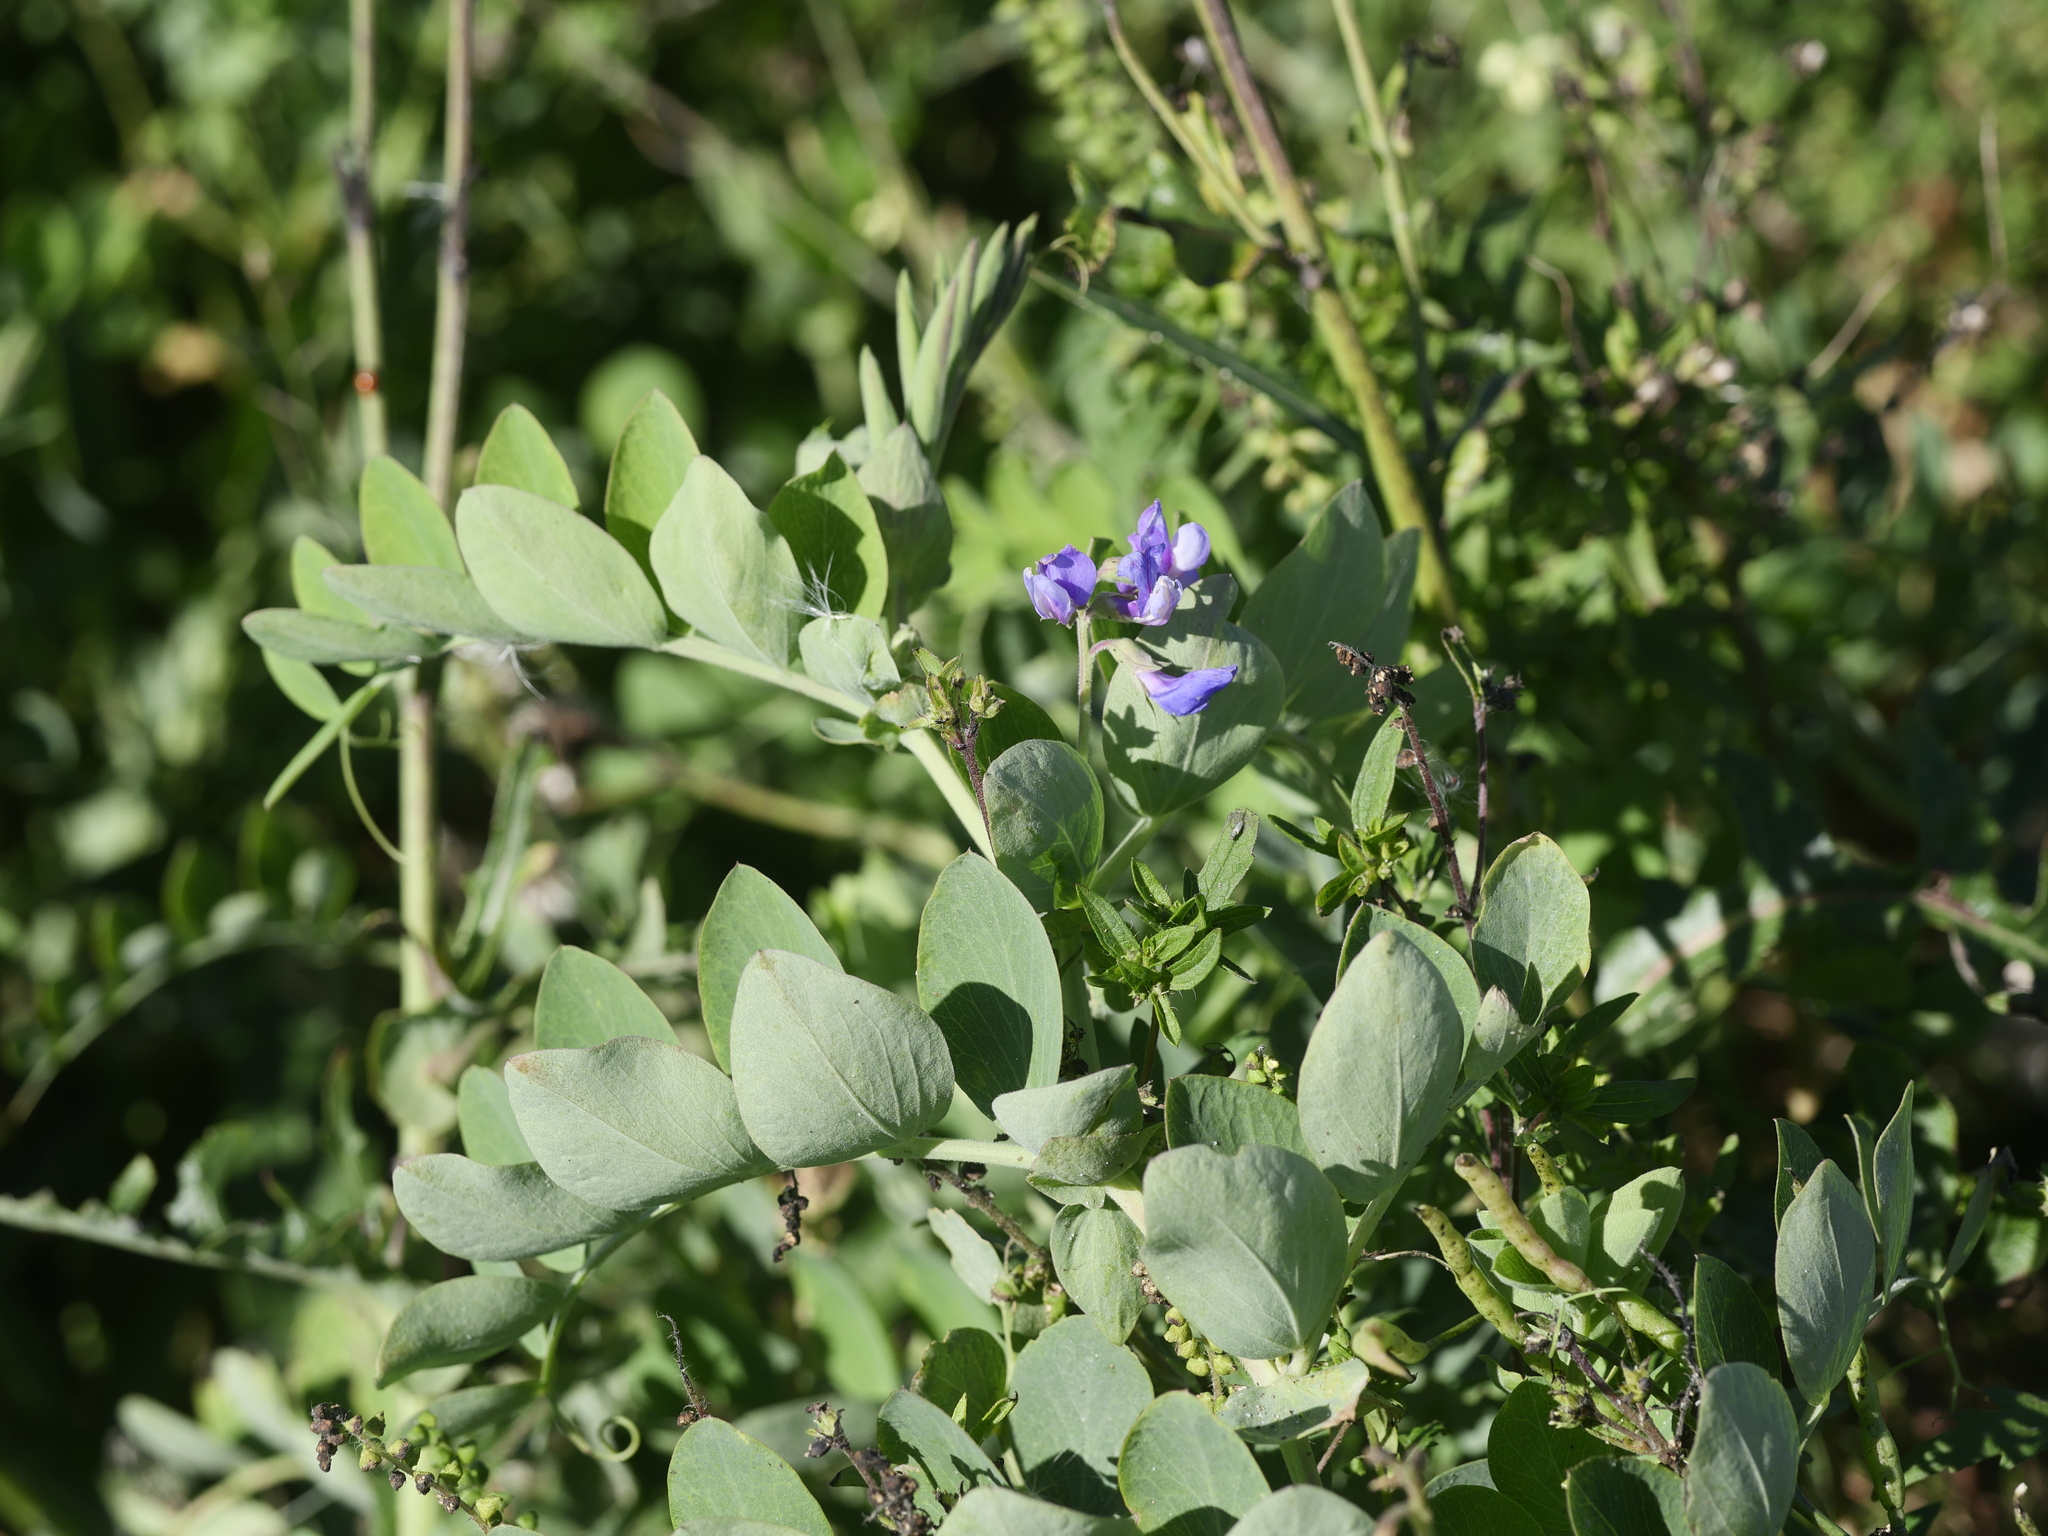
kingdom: Plantae
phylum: Tracheophyta
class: Magnoliopsida
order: Fabales
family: Fabaceae
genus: Lathyrus
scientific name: Lathyrus japonicus
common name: Sea pea
